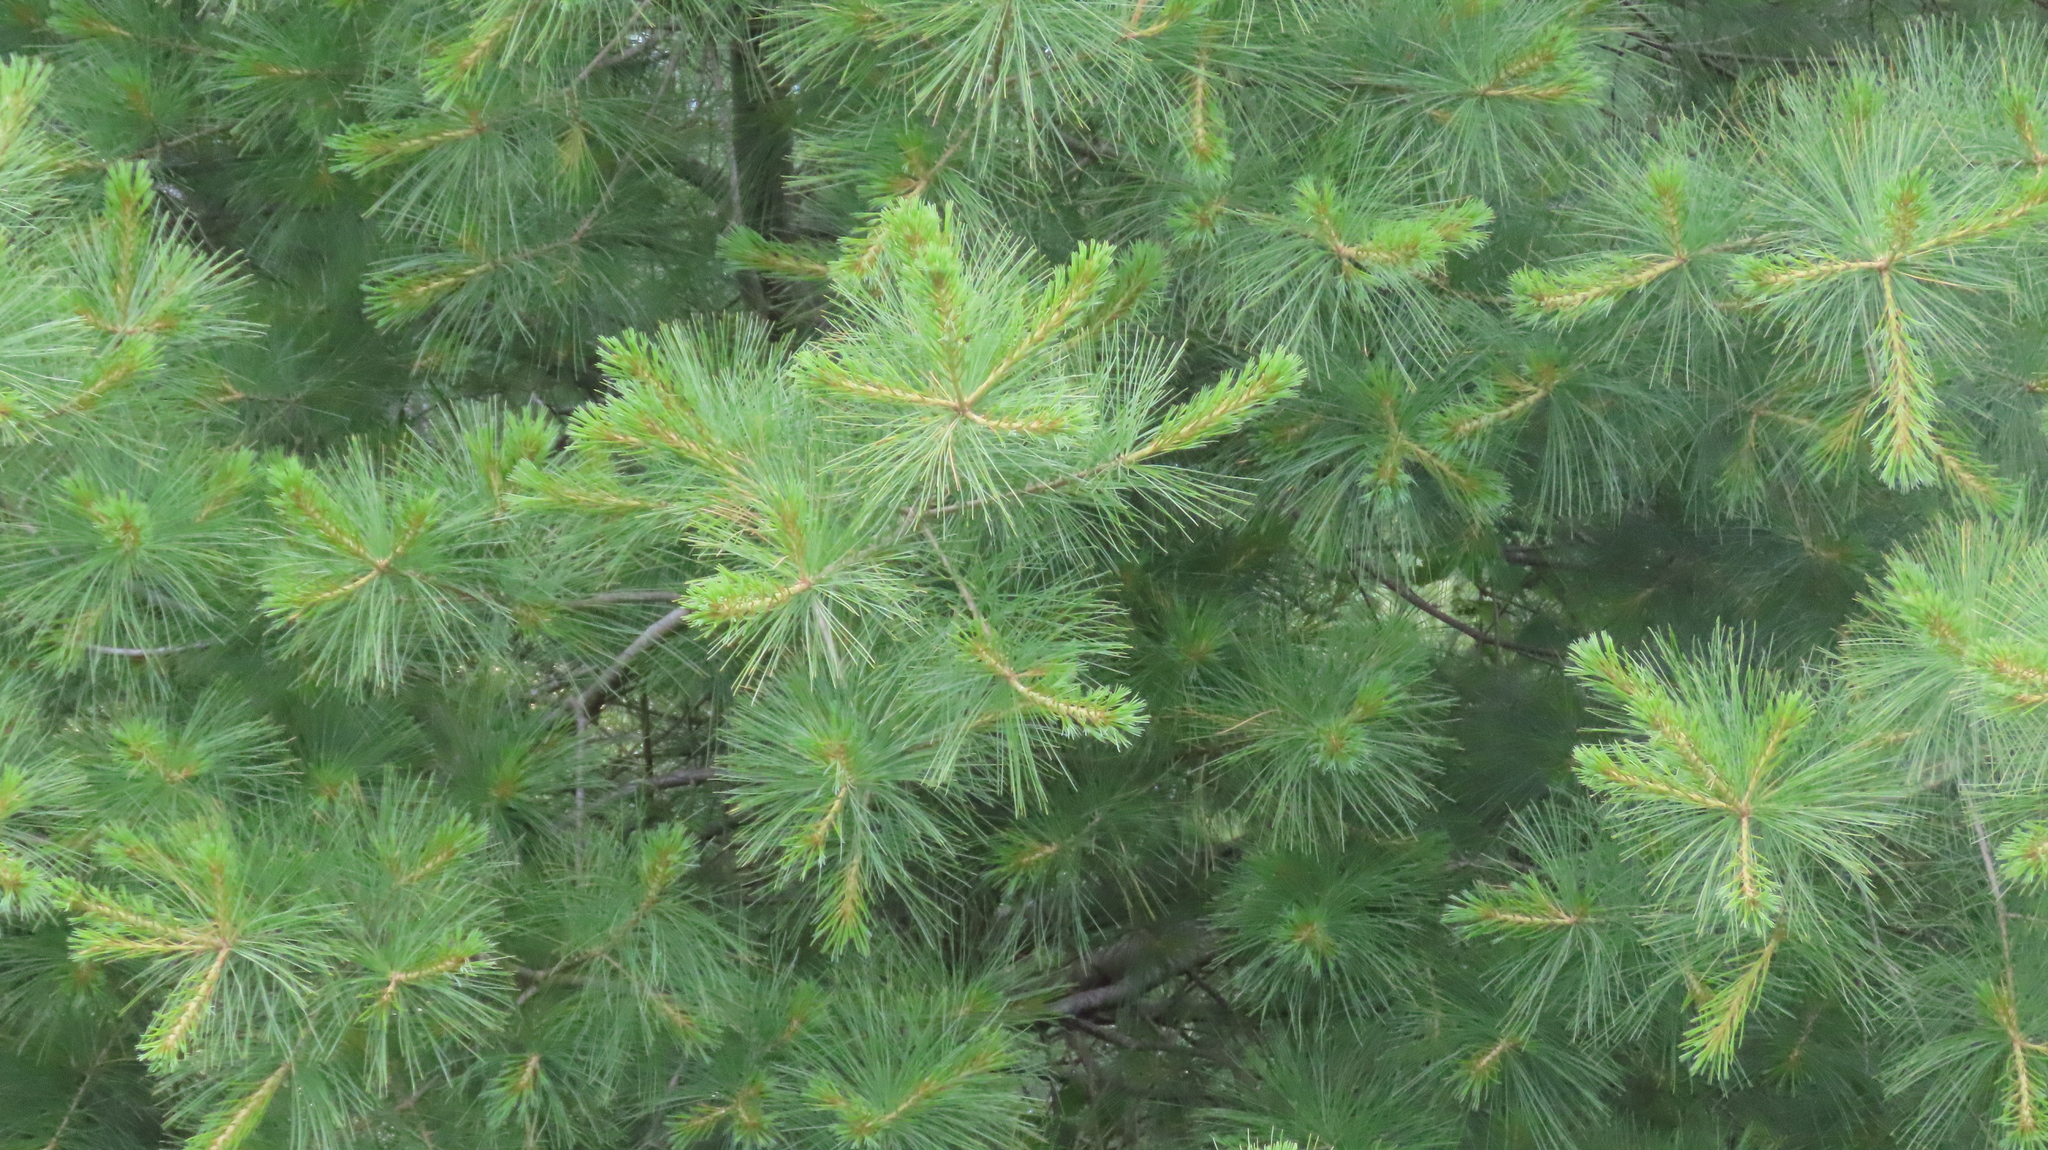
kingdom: Plantae
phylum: Tracheophyta
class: Pinopsida
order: Pinales
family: Pinaceae
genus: Pinus
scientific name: Pinus strobus
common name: Weymouth pine
